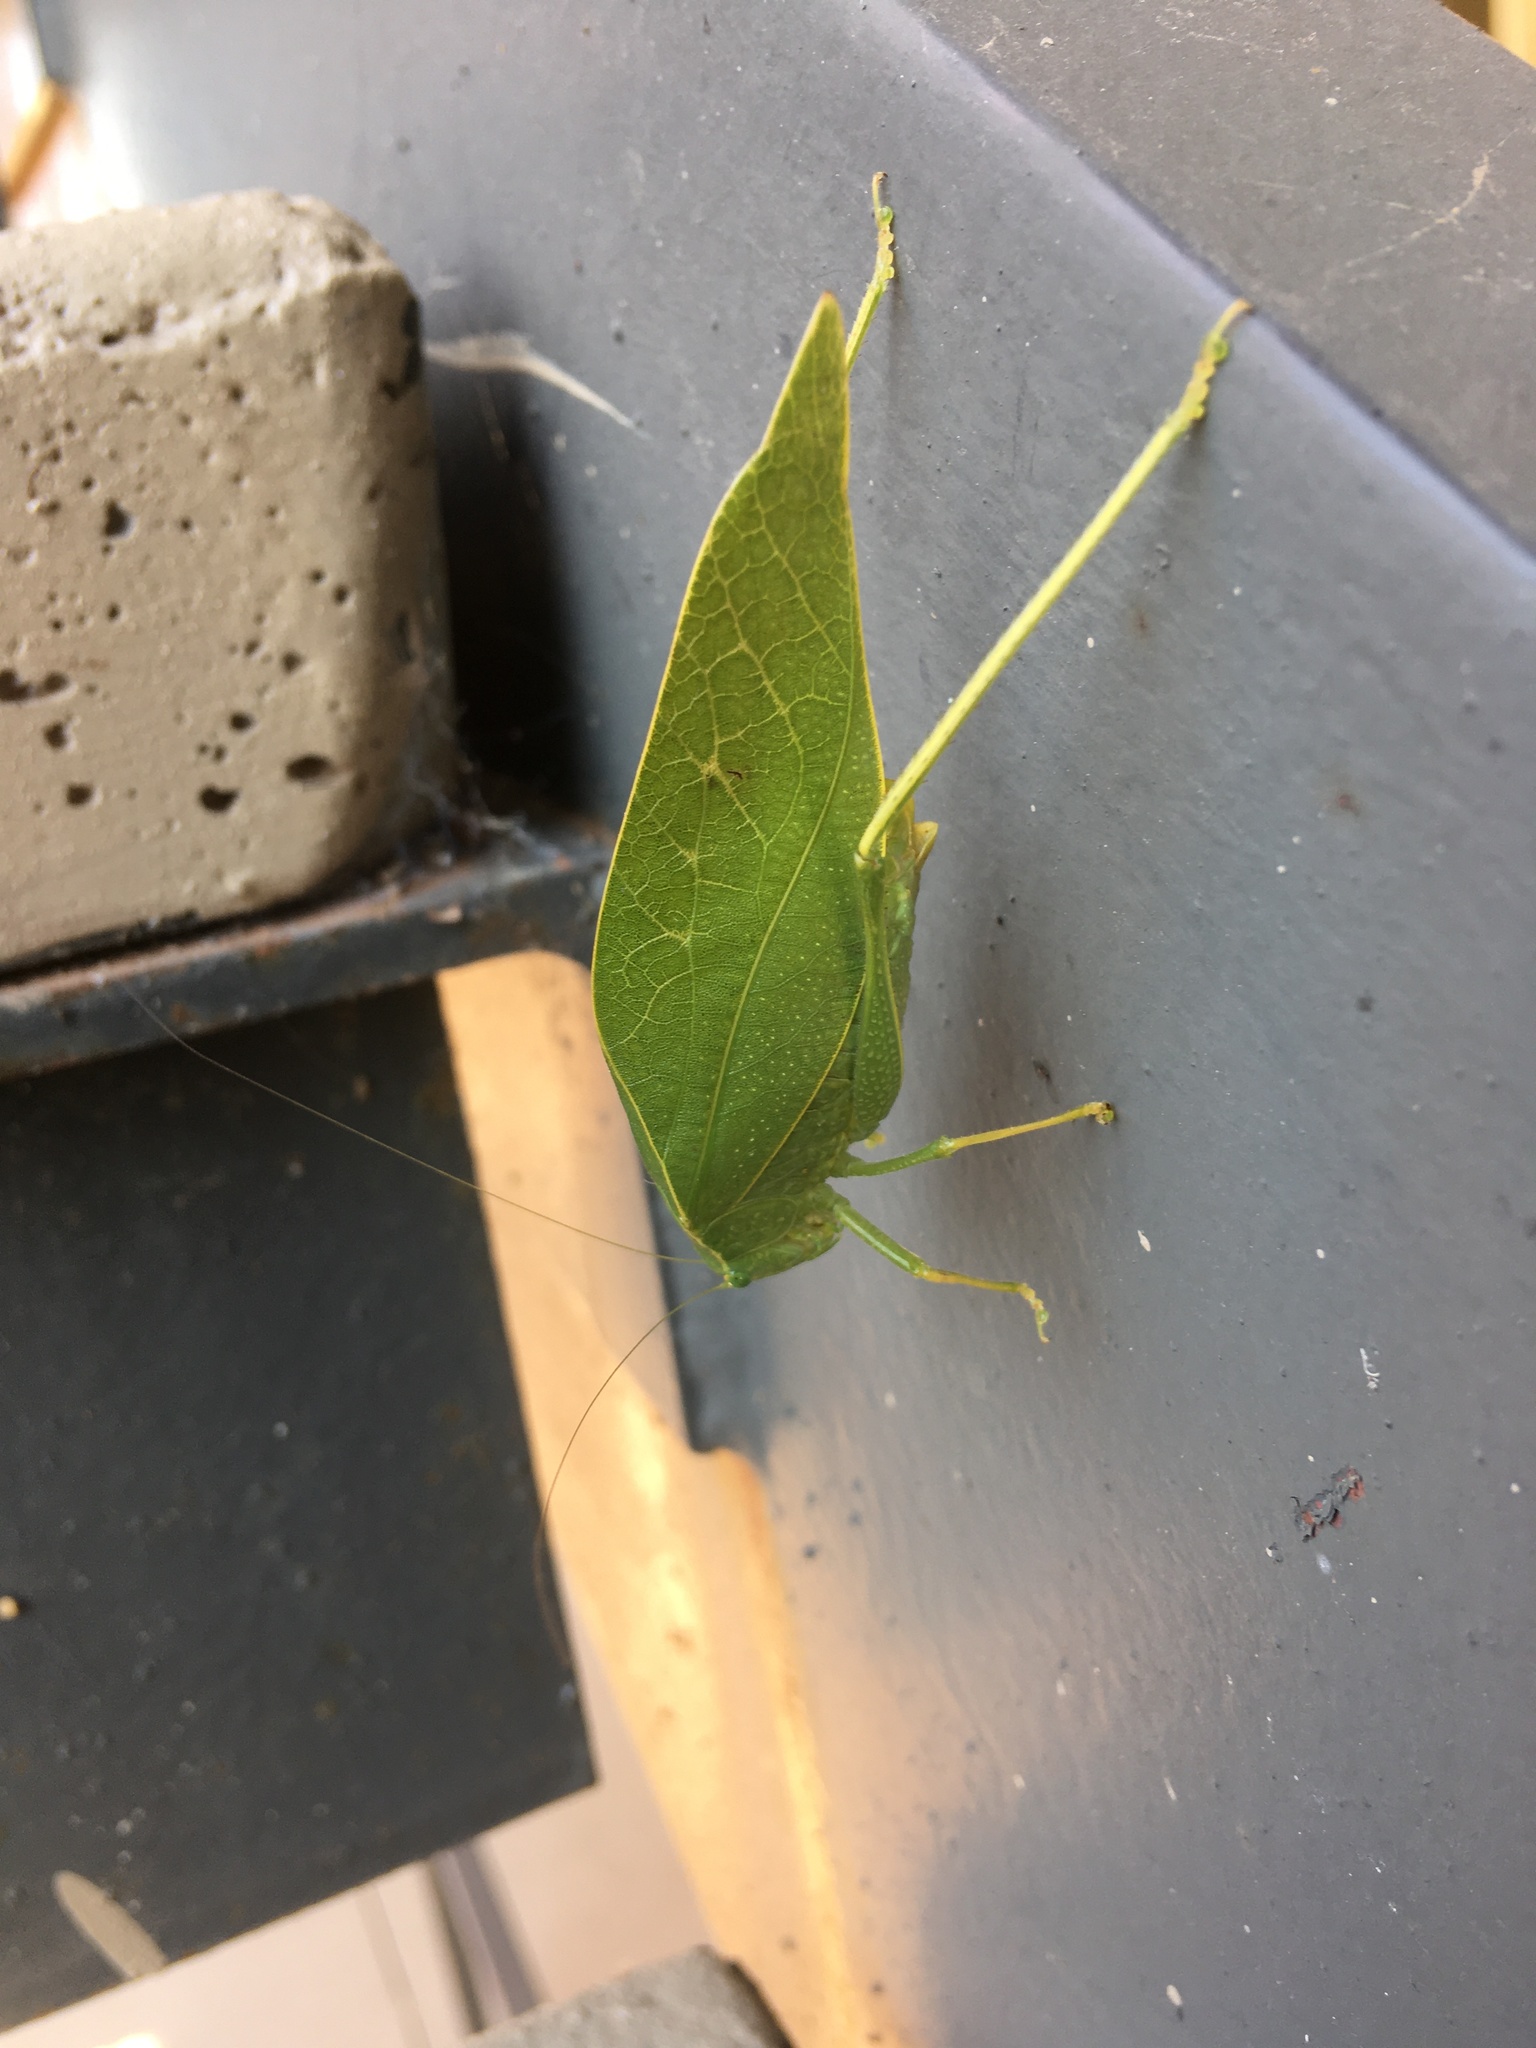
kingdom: Animalia
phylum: Arthropoda
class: Insecta
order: Orthoptera
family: Tettigoniidae
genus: Microcentrum
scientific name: Microcentrum rhombifolium
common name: Broad-winged katydid
